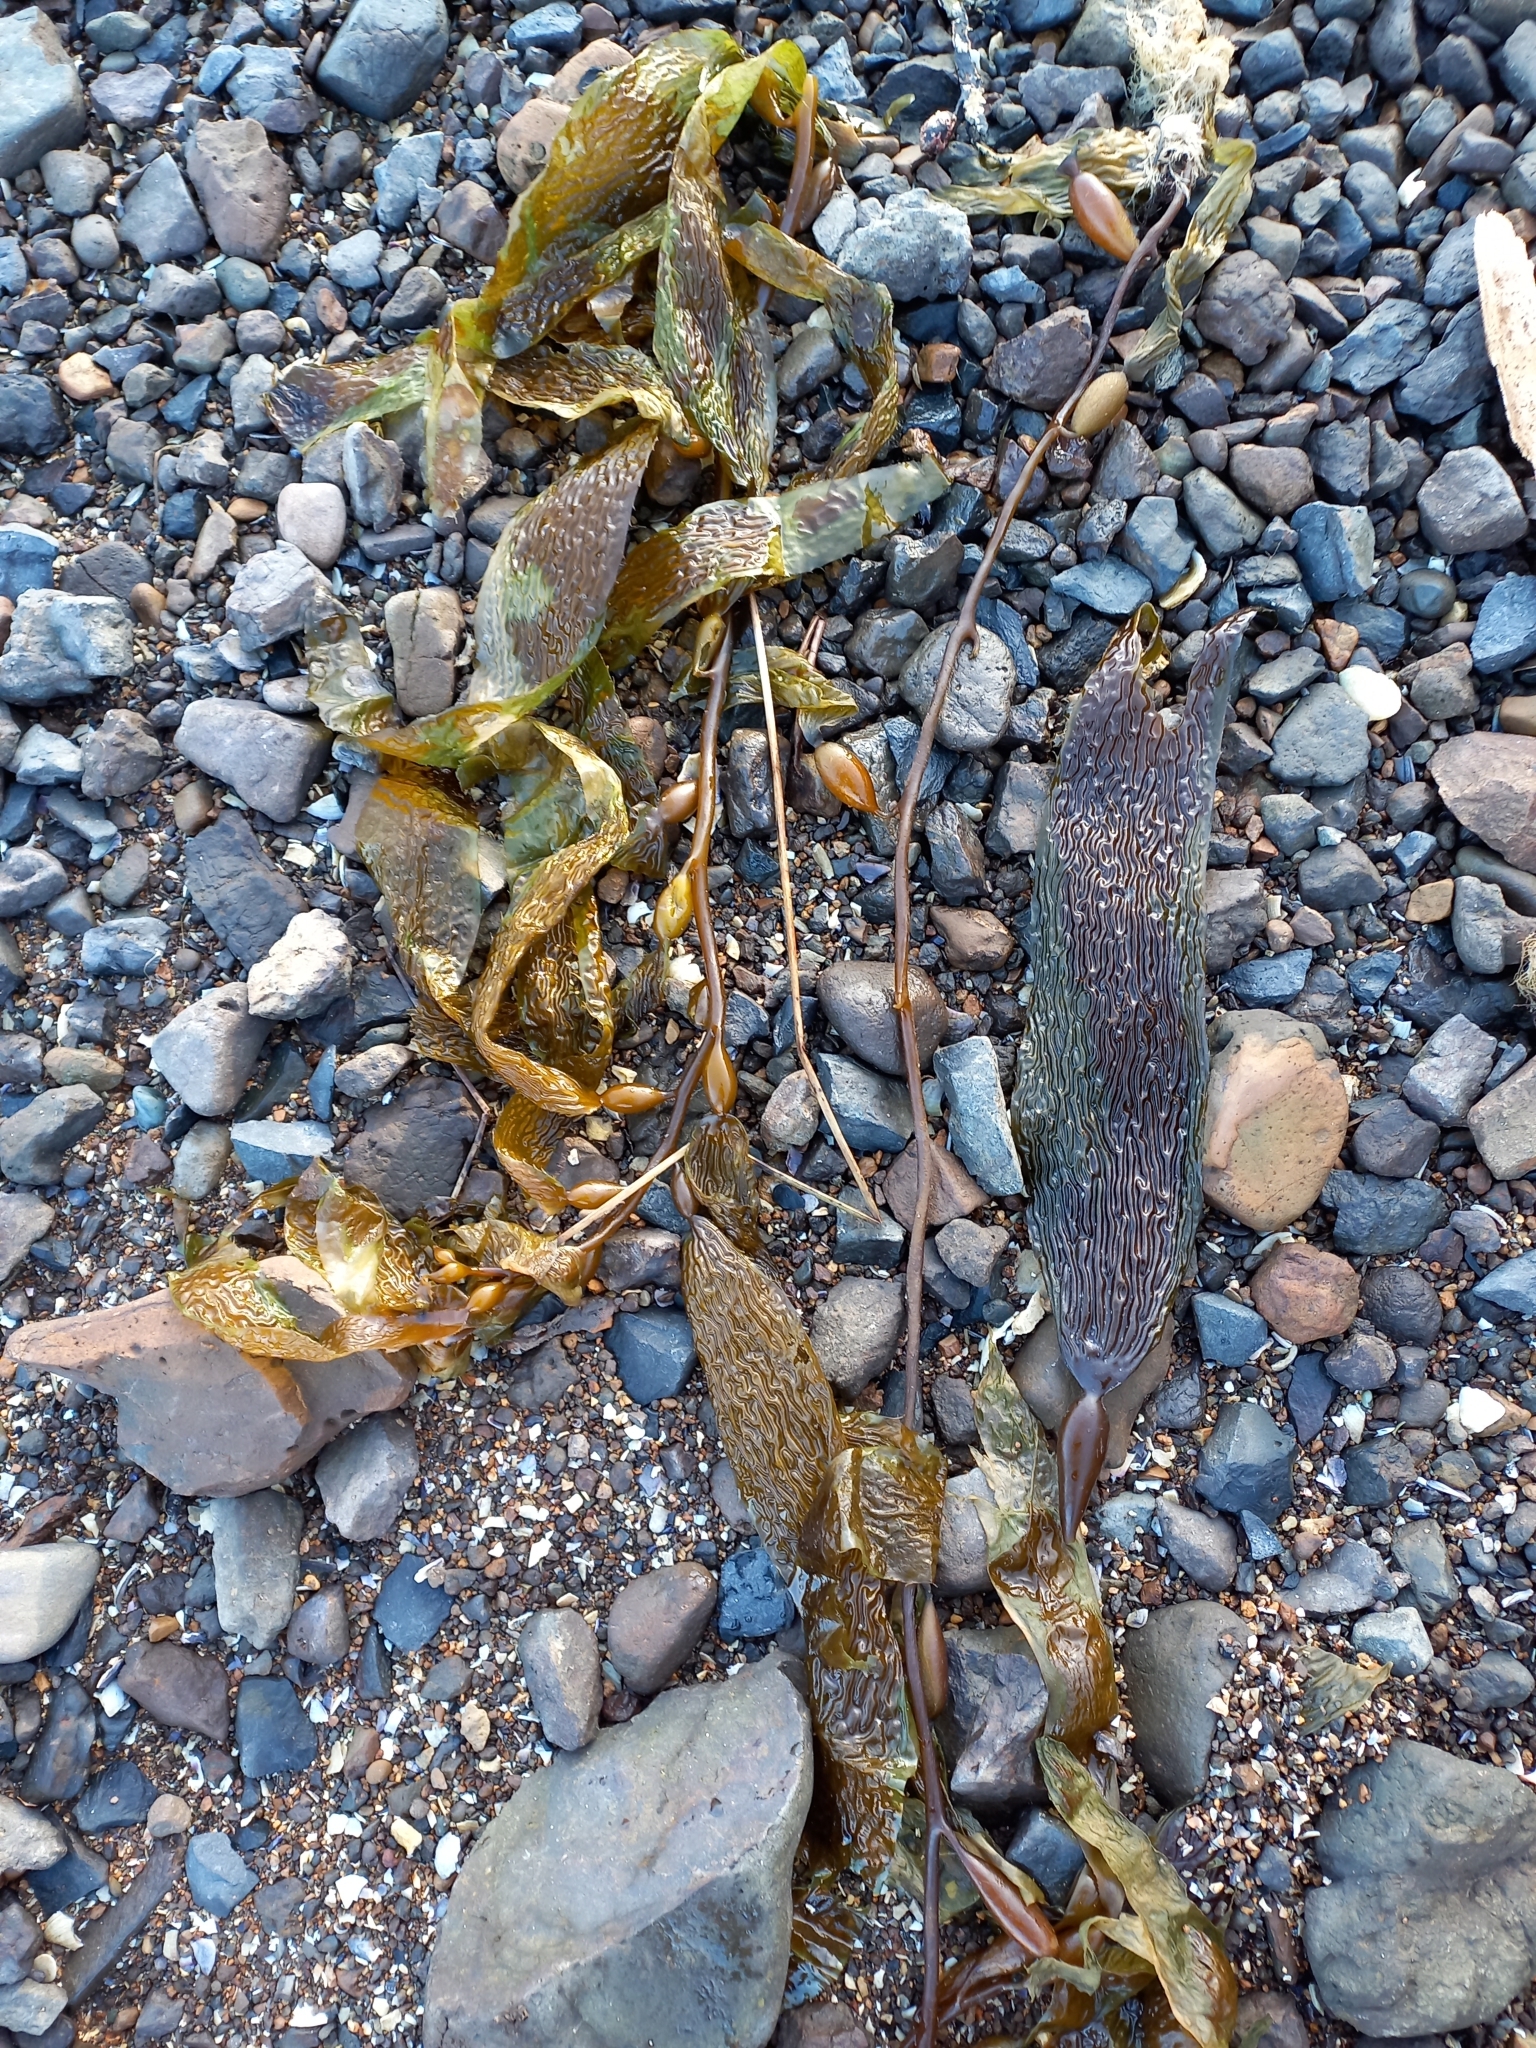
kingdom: Chromista
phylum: Ochrophyta
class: Phaeophyceae
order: Laminariales
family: Laminariaceae
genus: Macrocystis
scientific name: Macrocystis pyrifera
